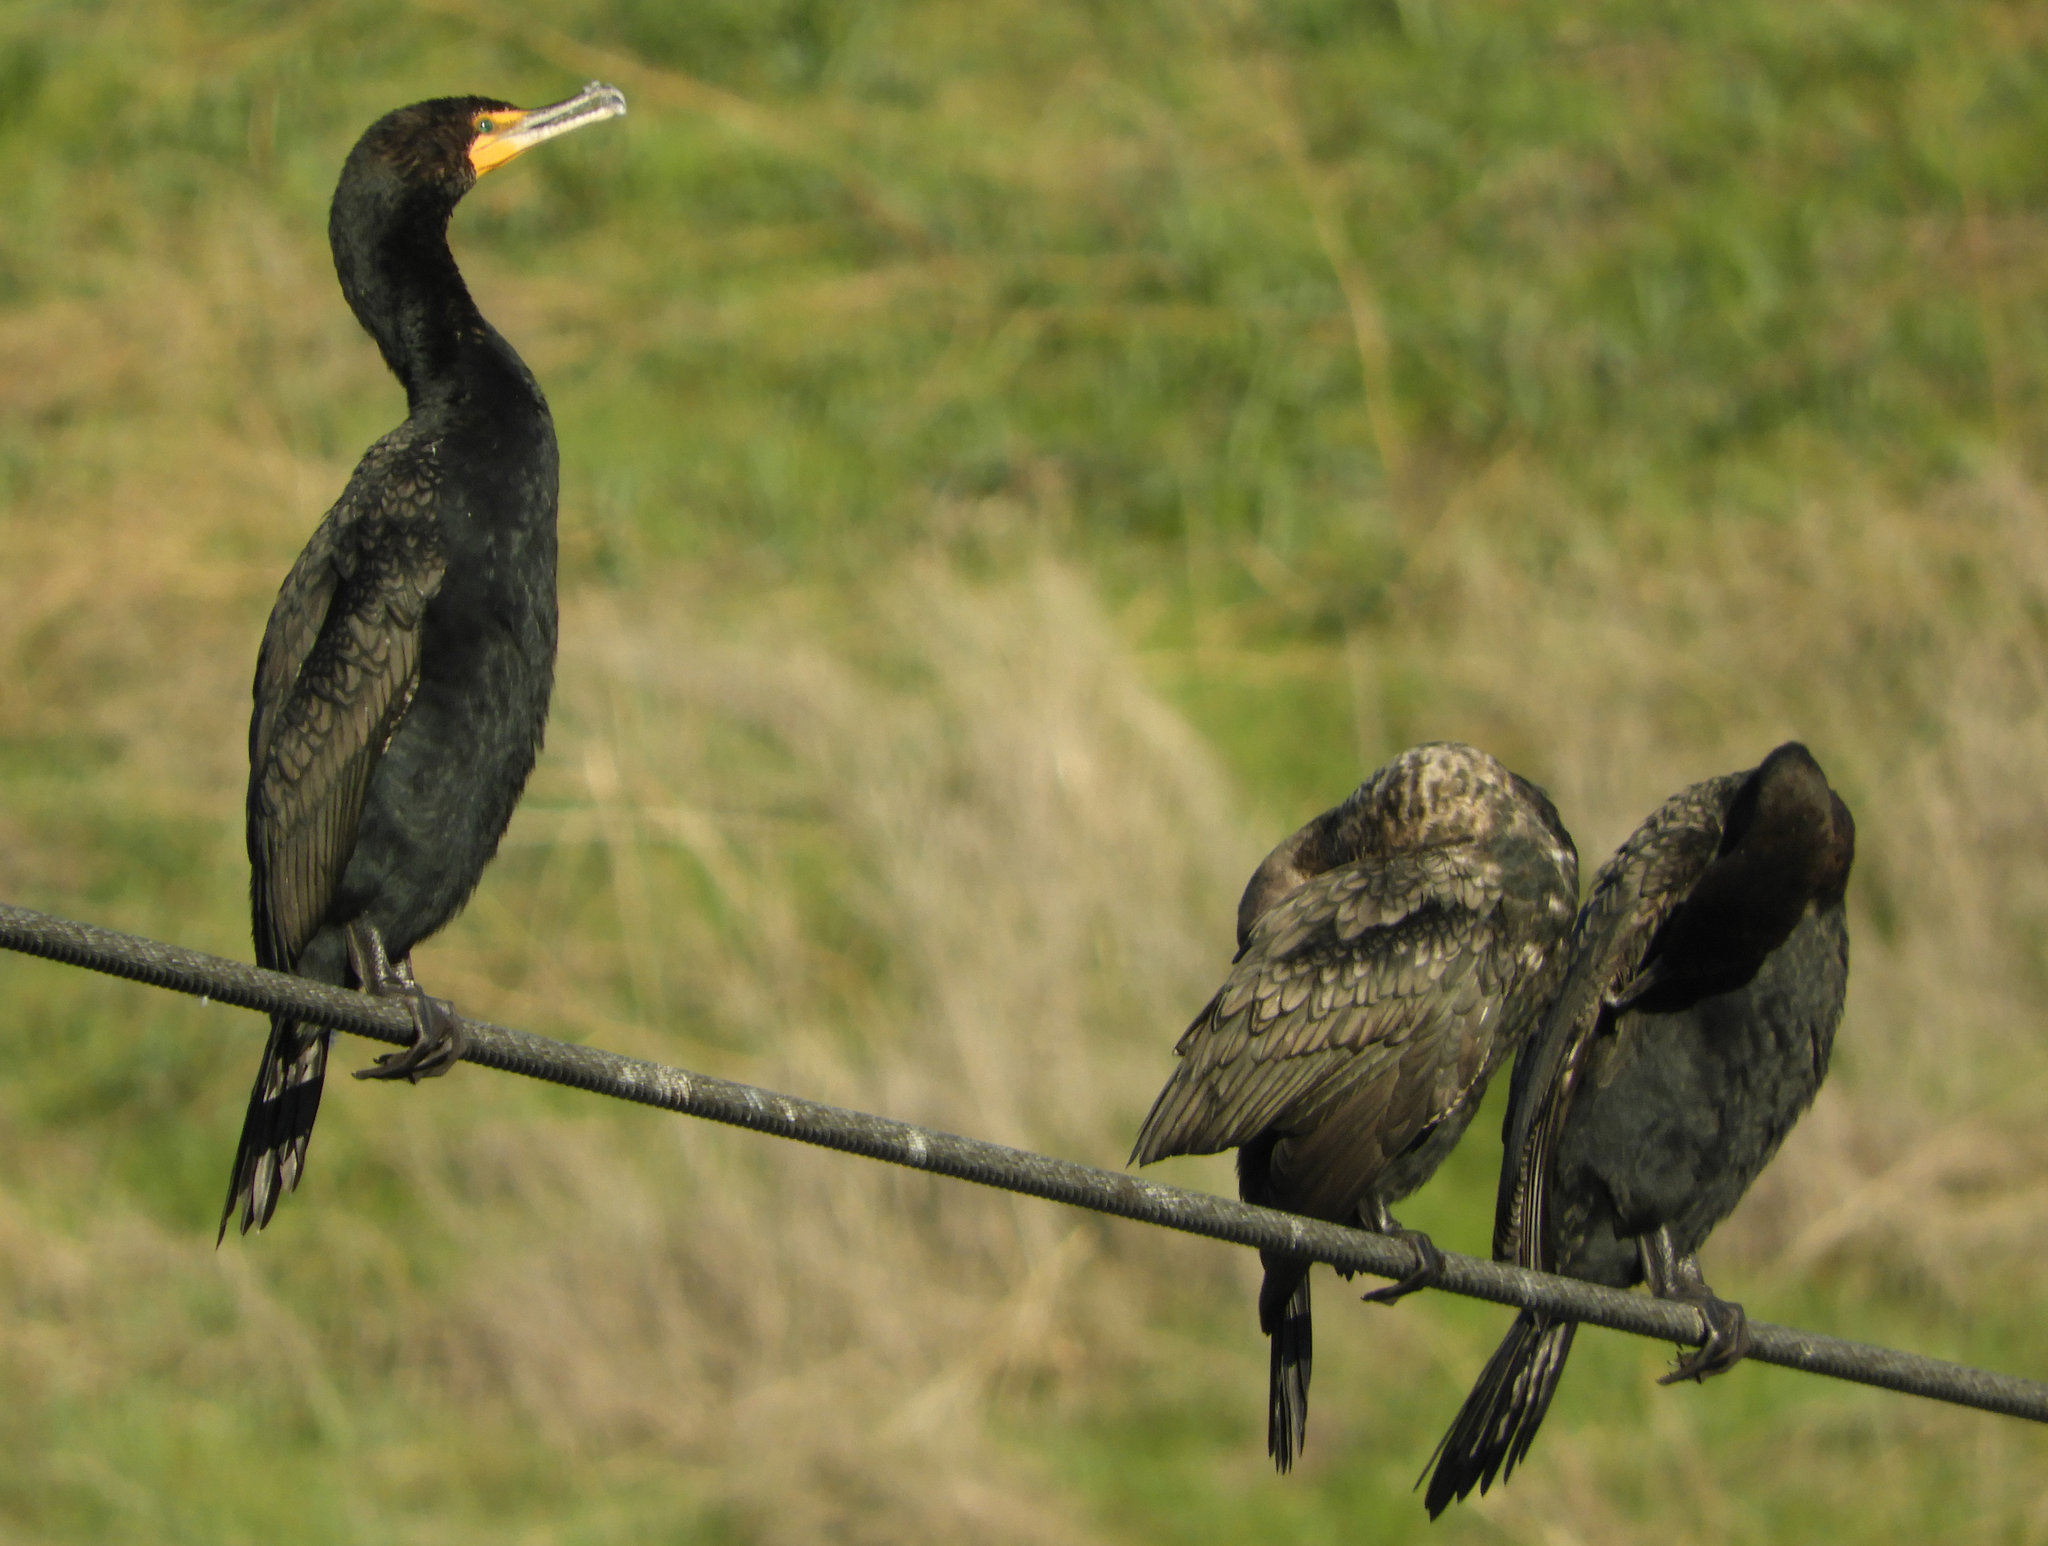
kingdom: Animalia
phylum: Chordata
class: Aves
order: Suliformes
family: Phalacrocoracidae
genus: Phalacrocorax
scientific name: Phalacrocorax auritus
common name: Double-crested cormorant
